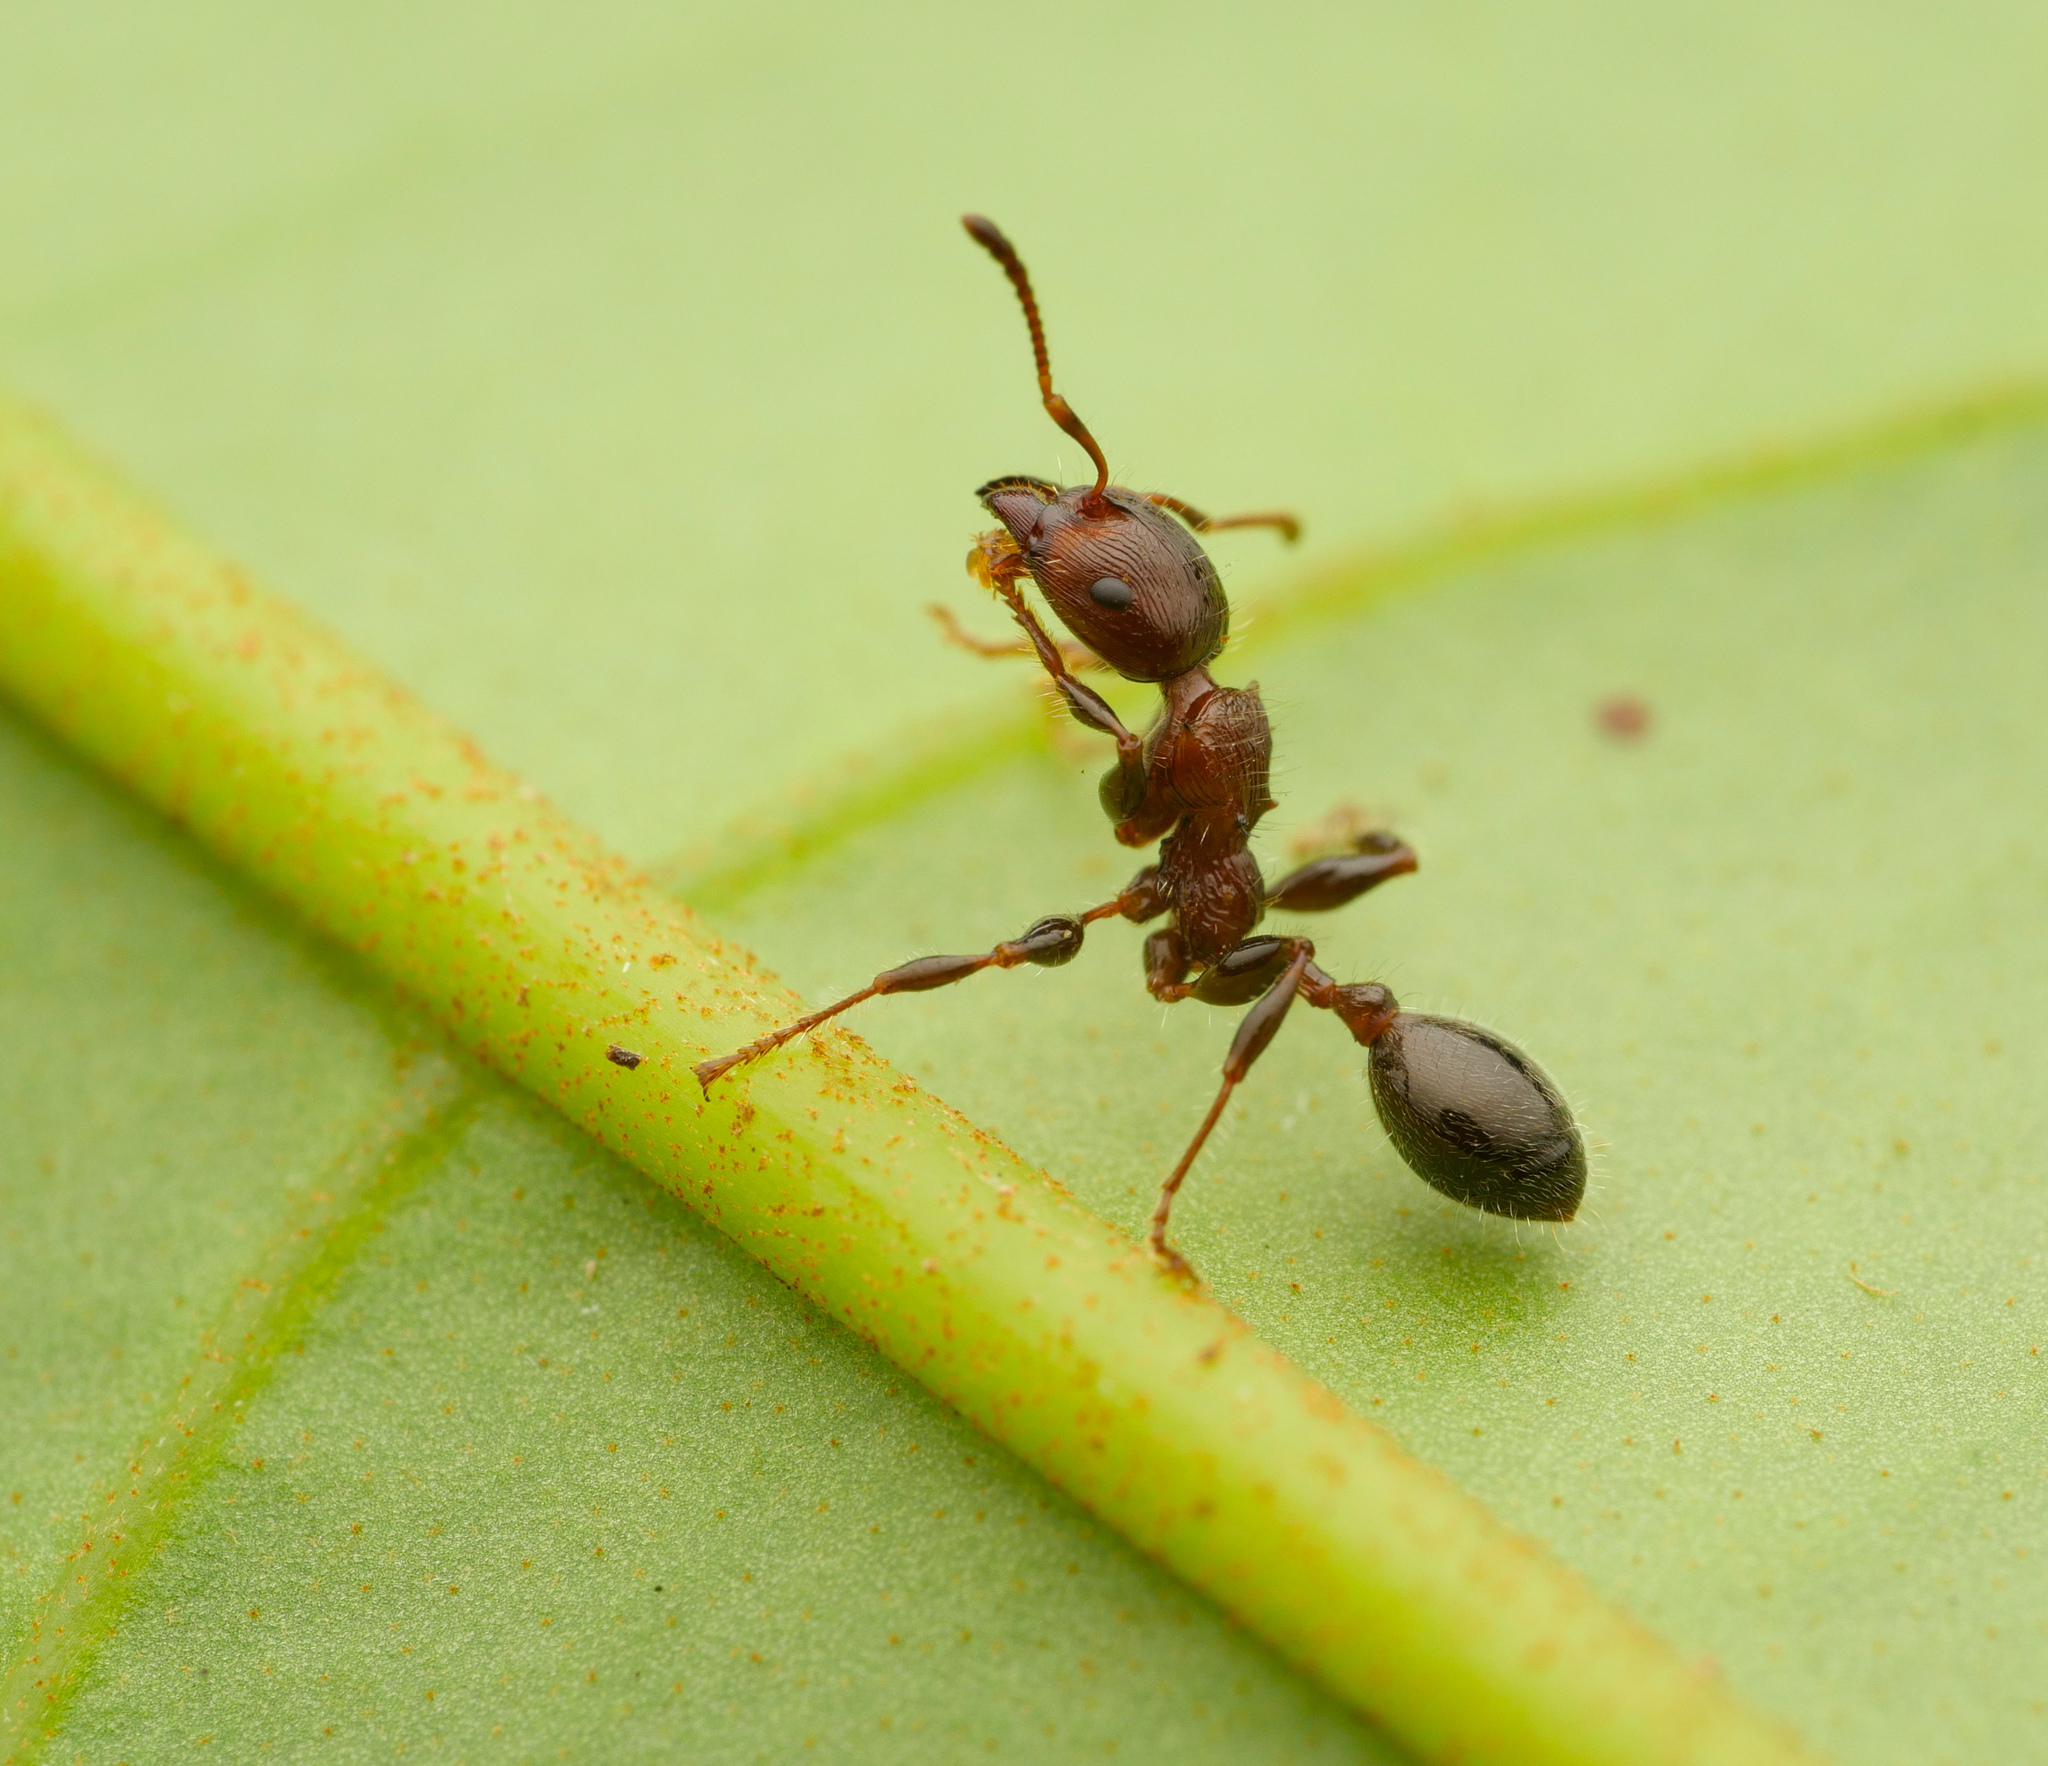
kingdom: Animalia
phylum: Arthropoda
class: Insecta
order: Hymenoptera
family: Formicidae
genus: Podomyrma
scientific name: Podomyrma laevifrons
